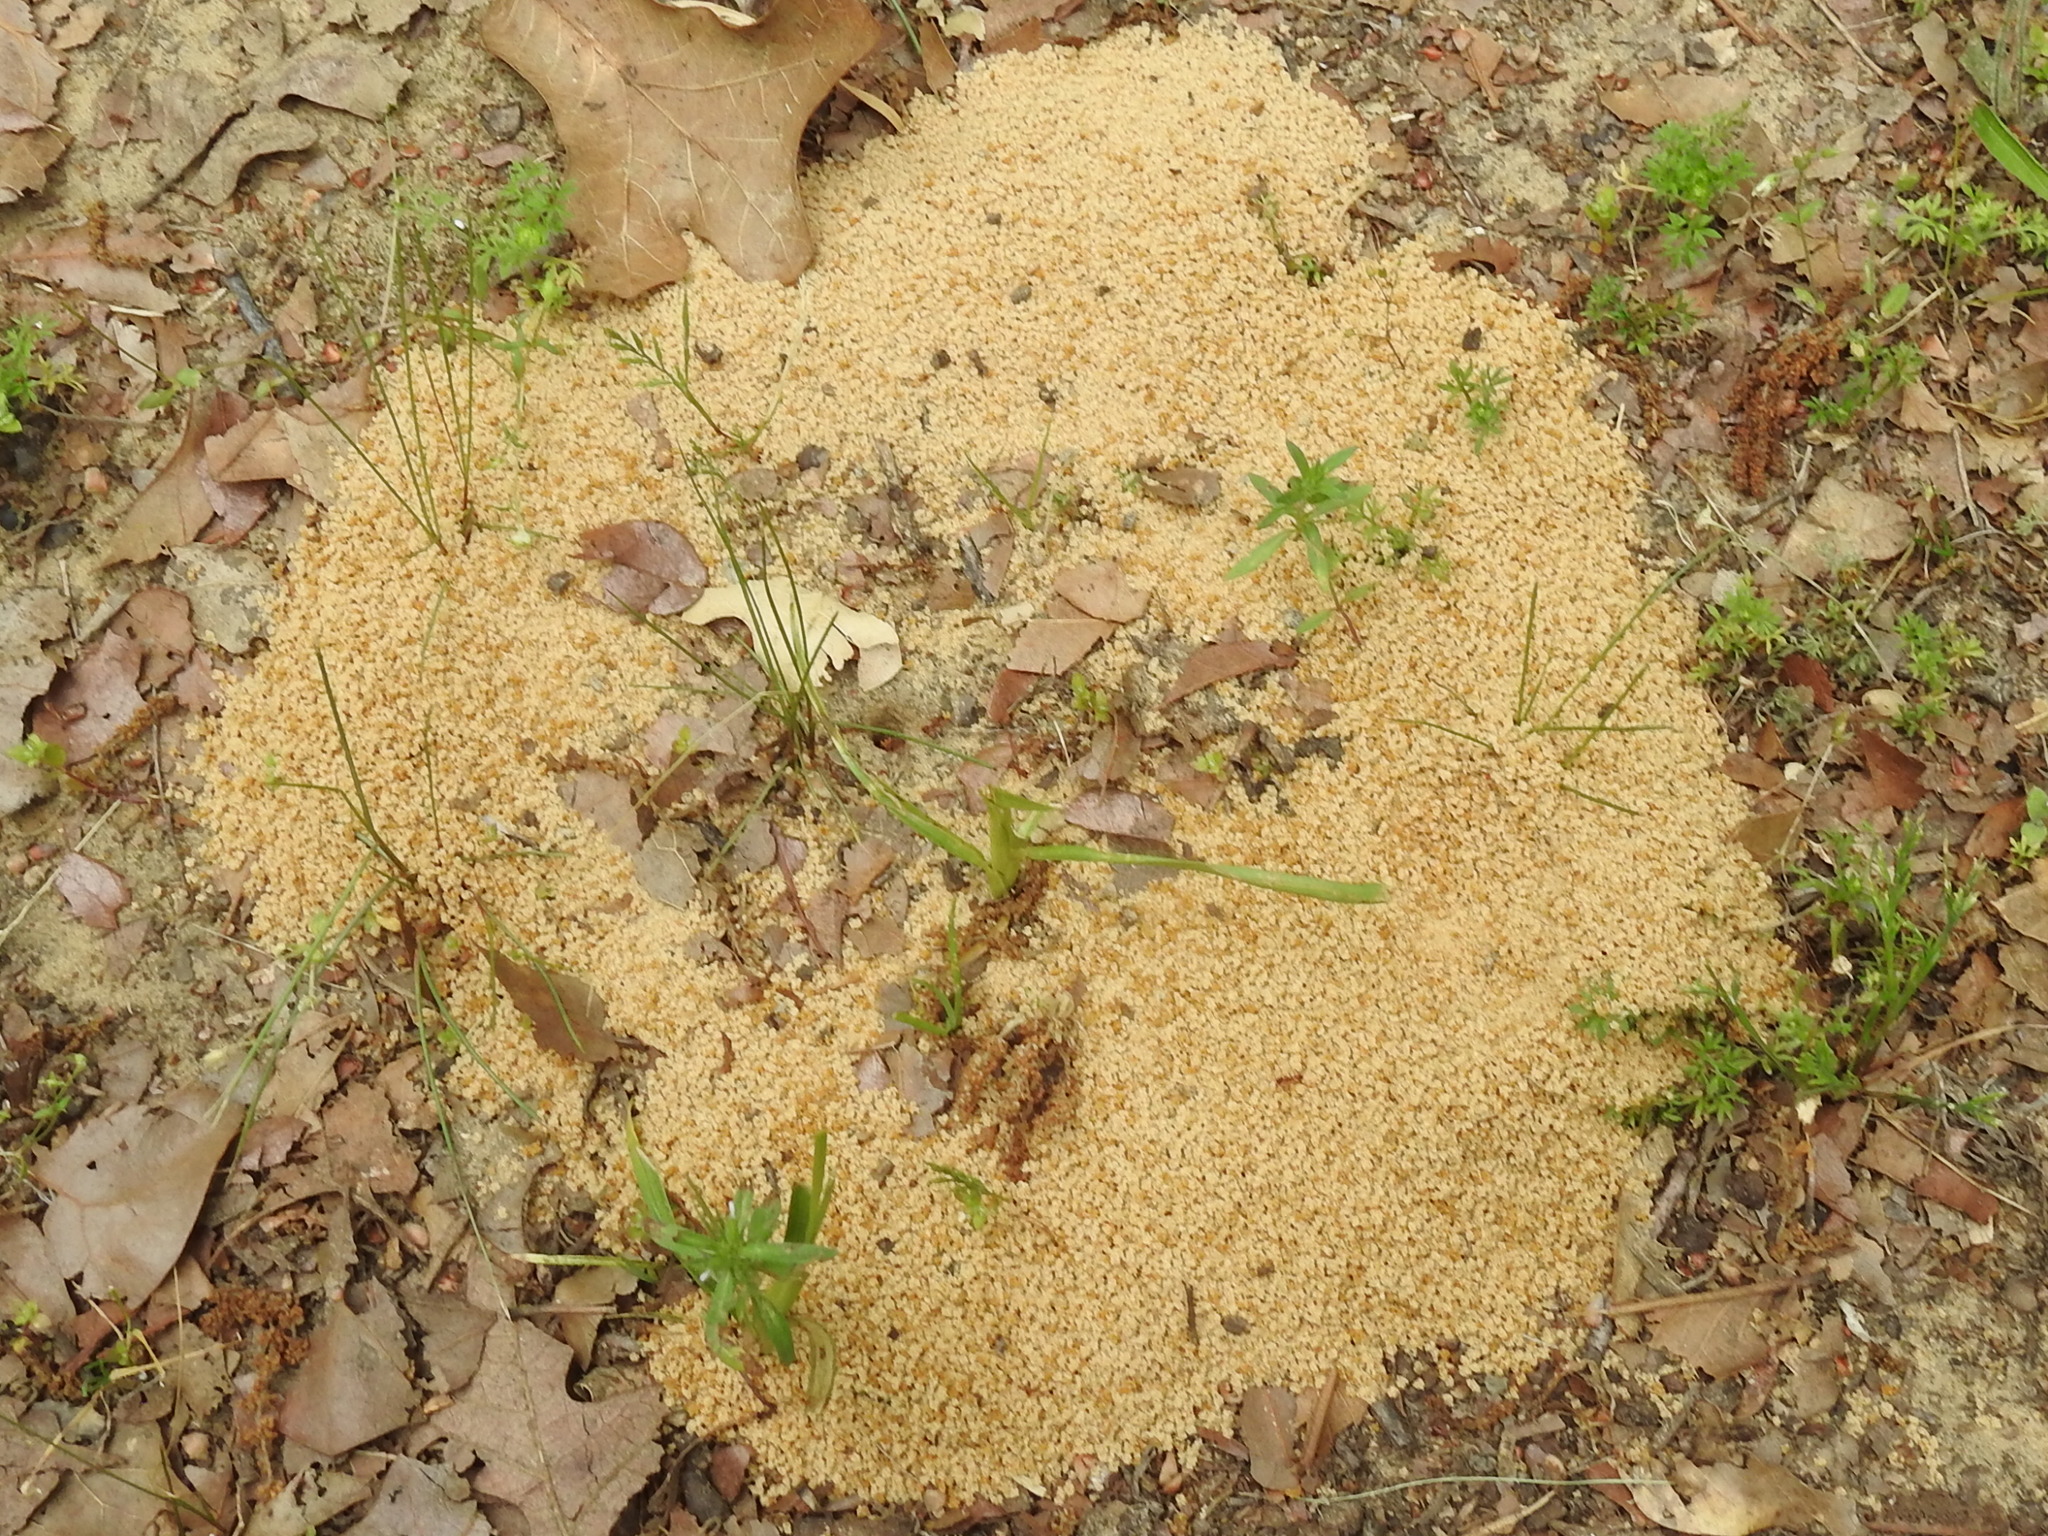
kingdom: Animalia
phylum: Arthropoda
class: Insecta
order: Hymenoptera
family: Formicidae
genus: Trachymyrmex
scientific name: Trachymyrmex septentrionalis
